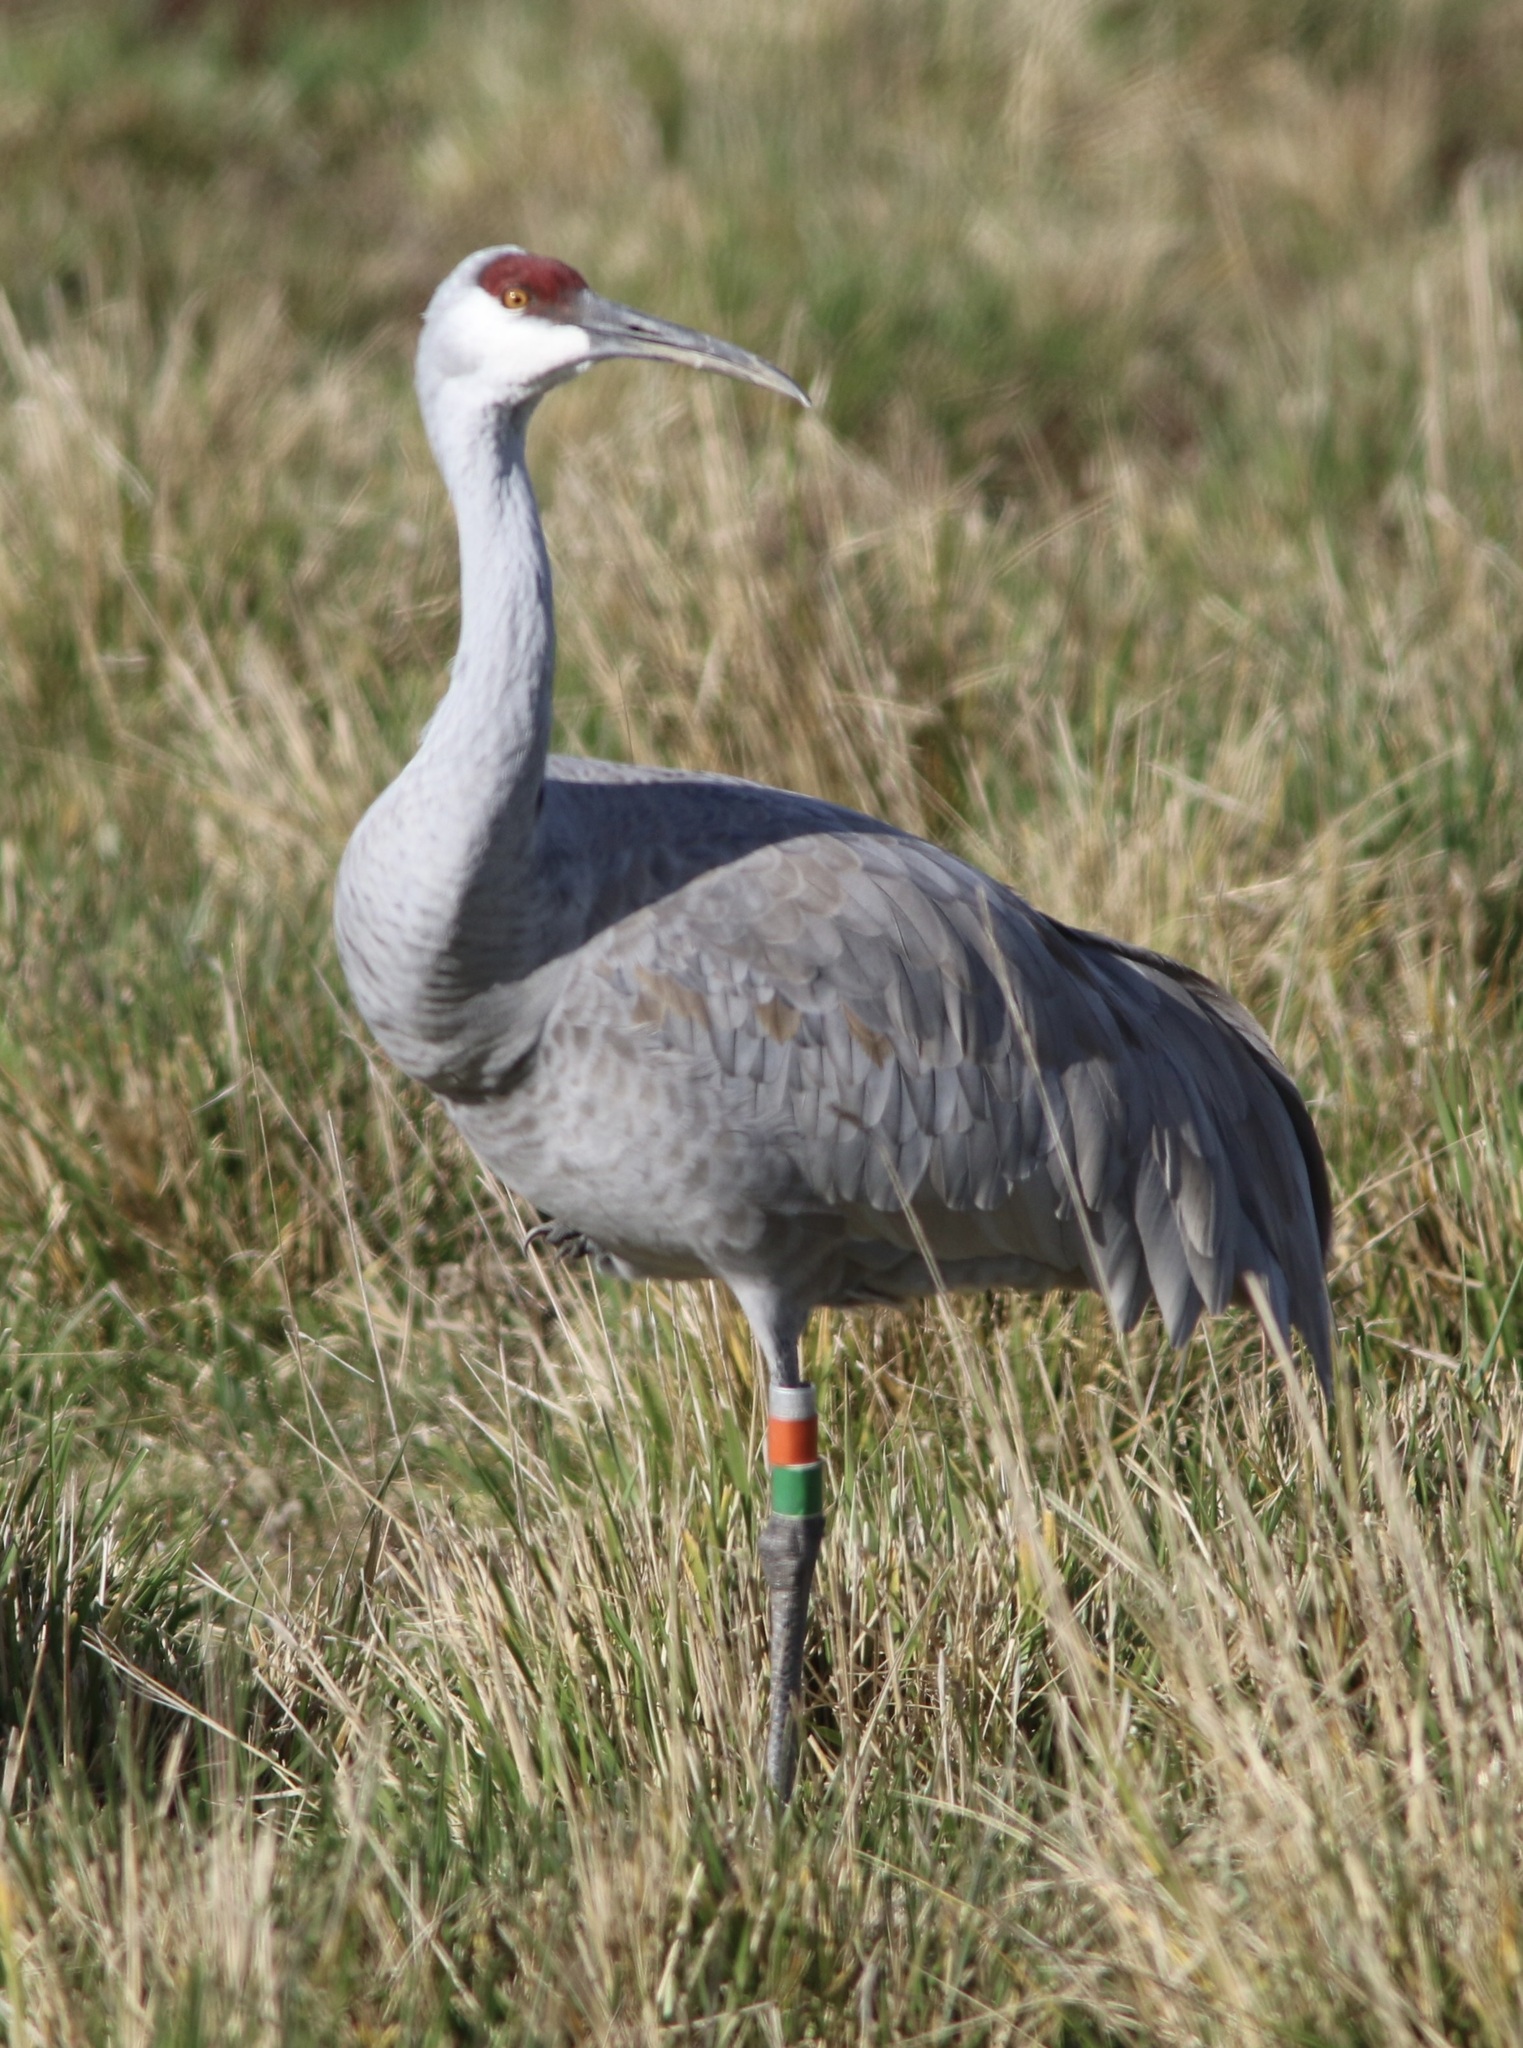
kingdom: Animalia
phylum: Chordata
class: Aves
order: Gruiformes
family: Gruidae
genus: Grus
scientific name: Grus canadensis
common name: Sandhill crane
